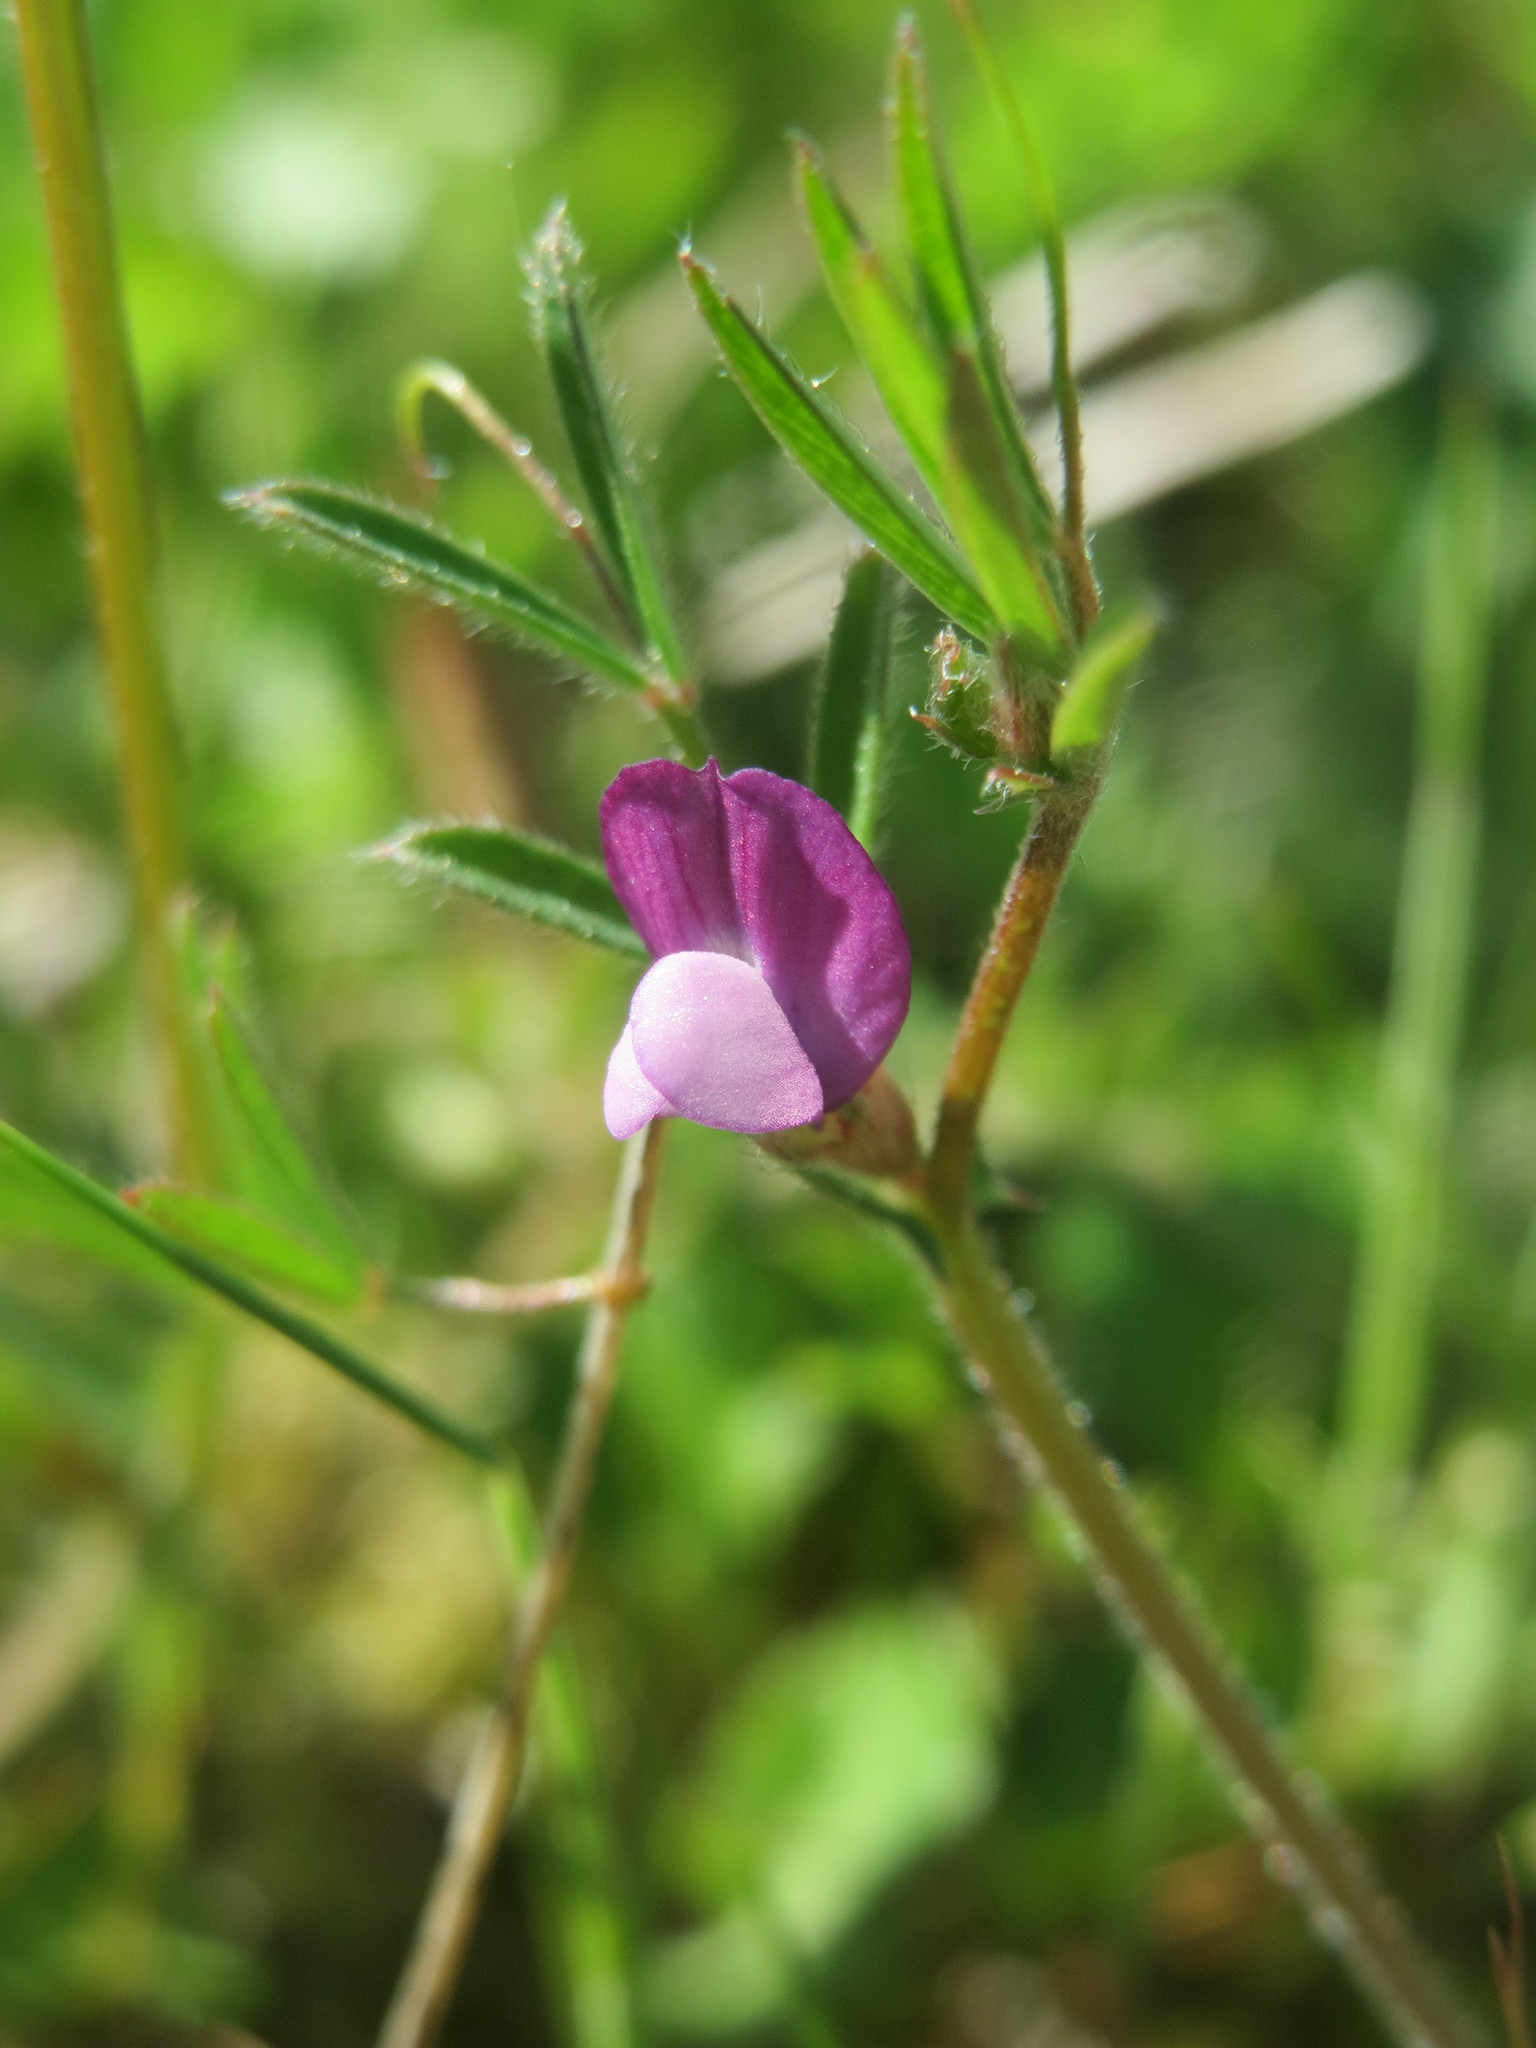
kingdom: Plantae
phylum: Tracheophyta
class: Magnoliopsida
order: Fabales
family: Fabaceae
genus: Vicia
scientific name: Vicia lathyroides
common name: Spring vetch
